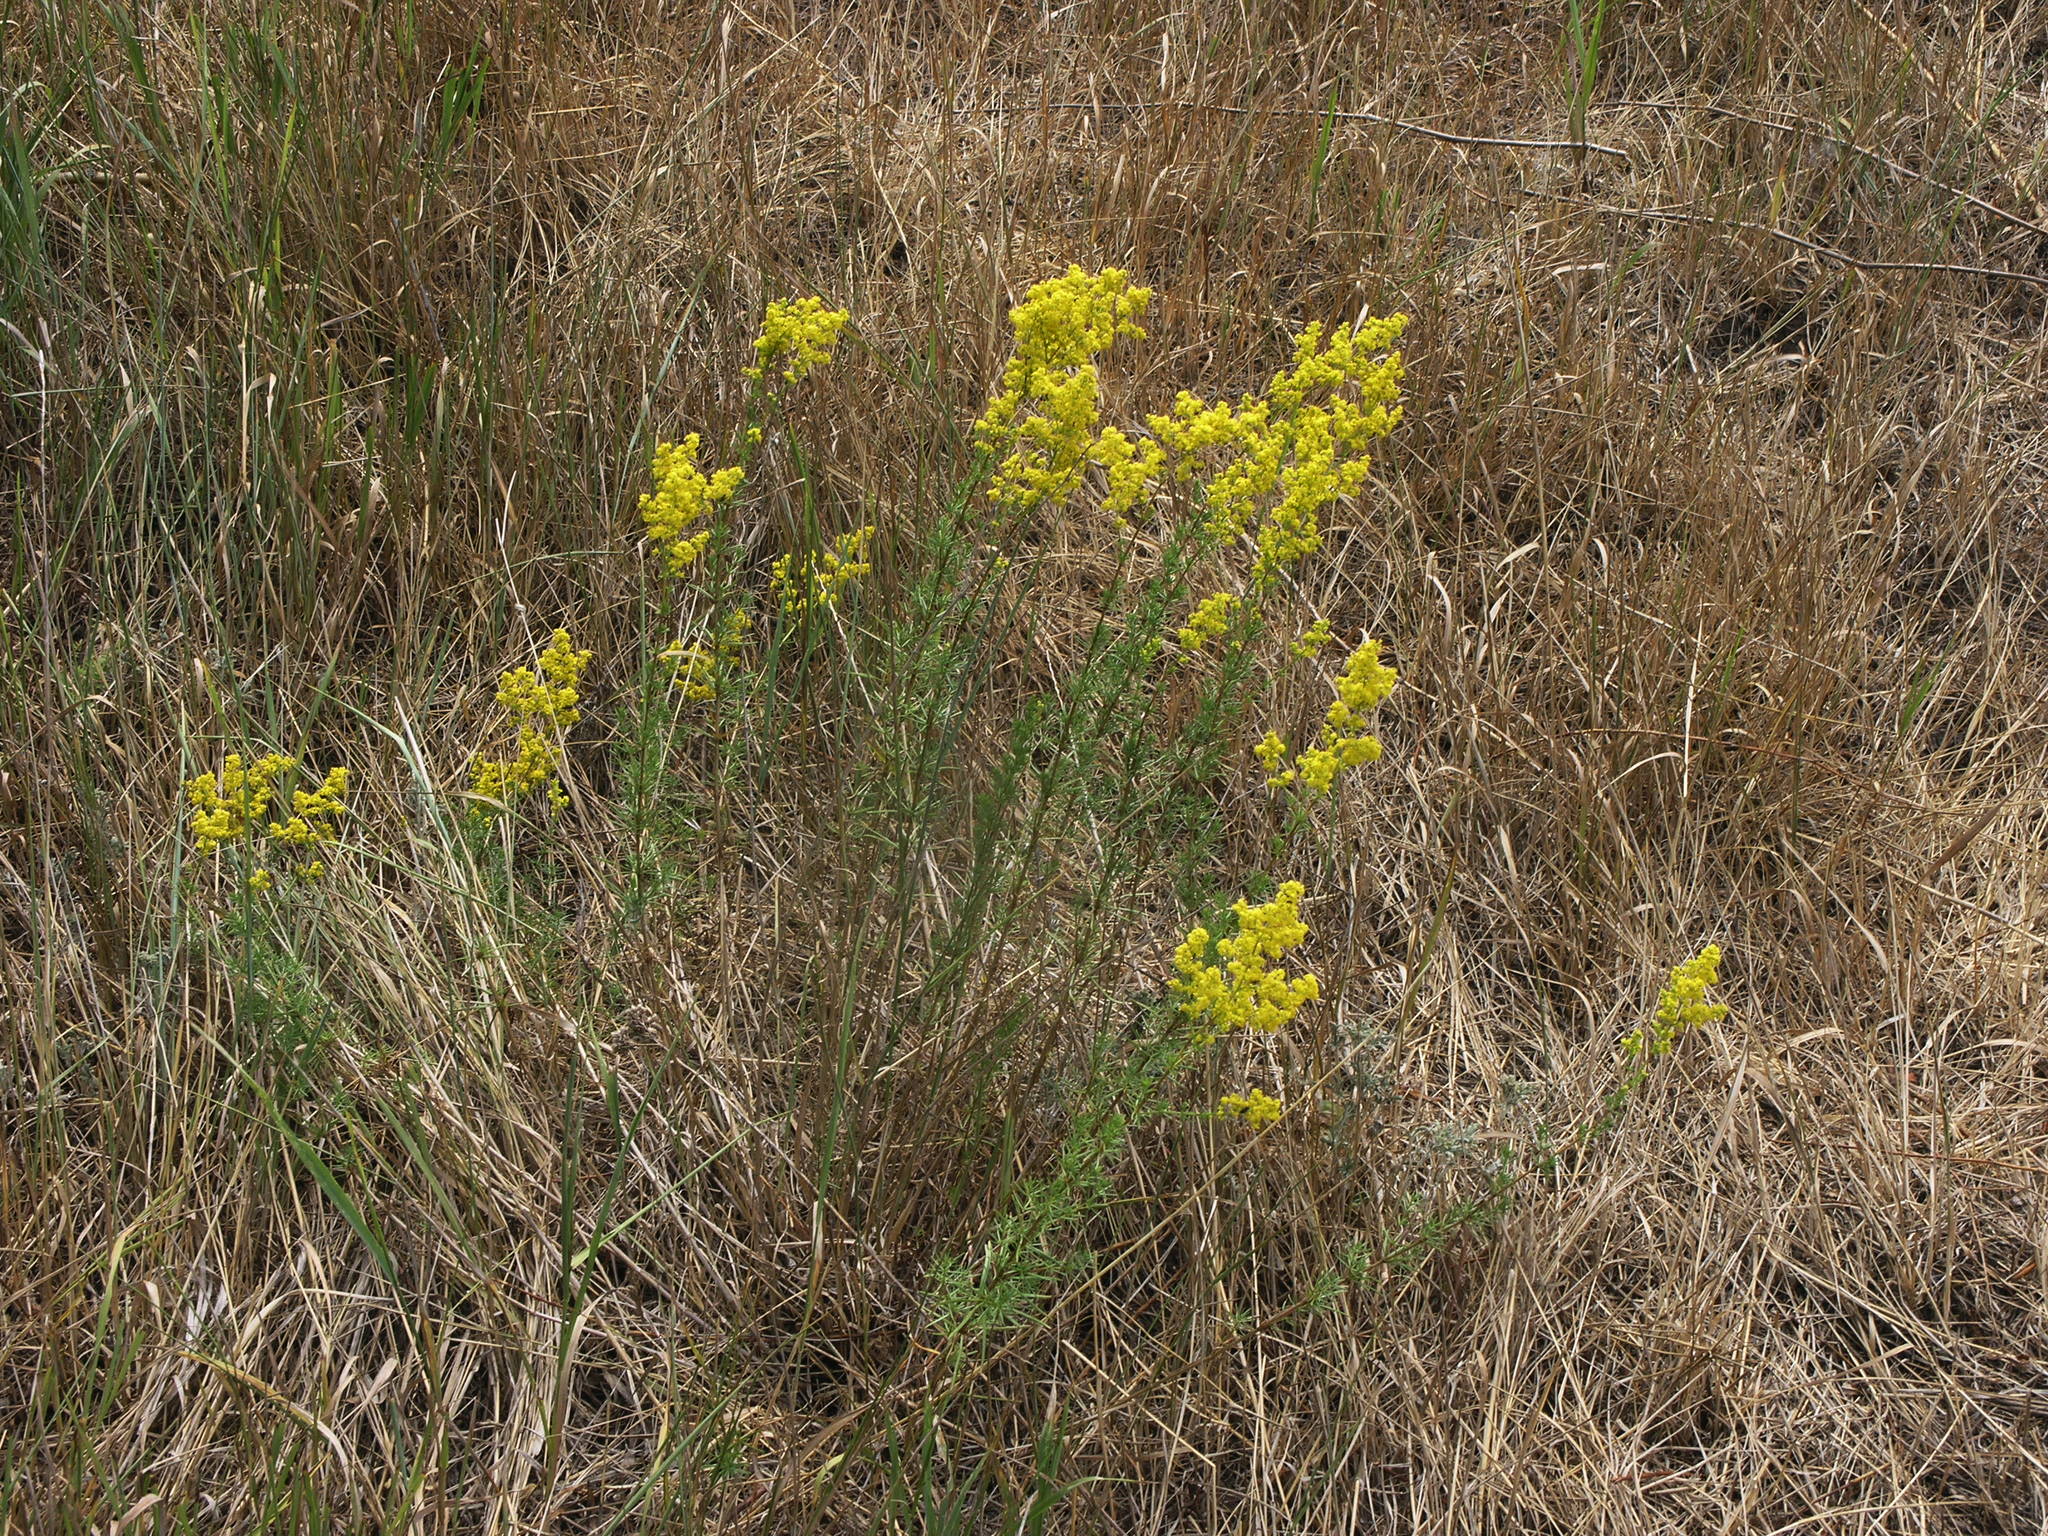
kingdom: Plantae
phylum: Tracheophyta
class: Magnoliopsida
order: Gentianales
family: Rubiaceae
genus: Galium
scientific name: Galium verum
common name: Lady's bedstraw
